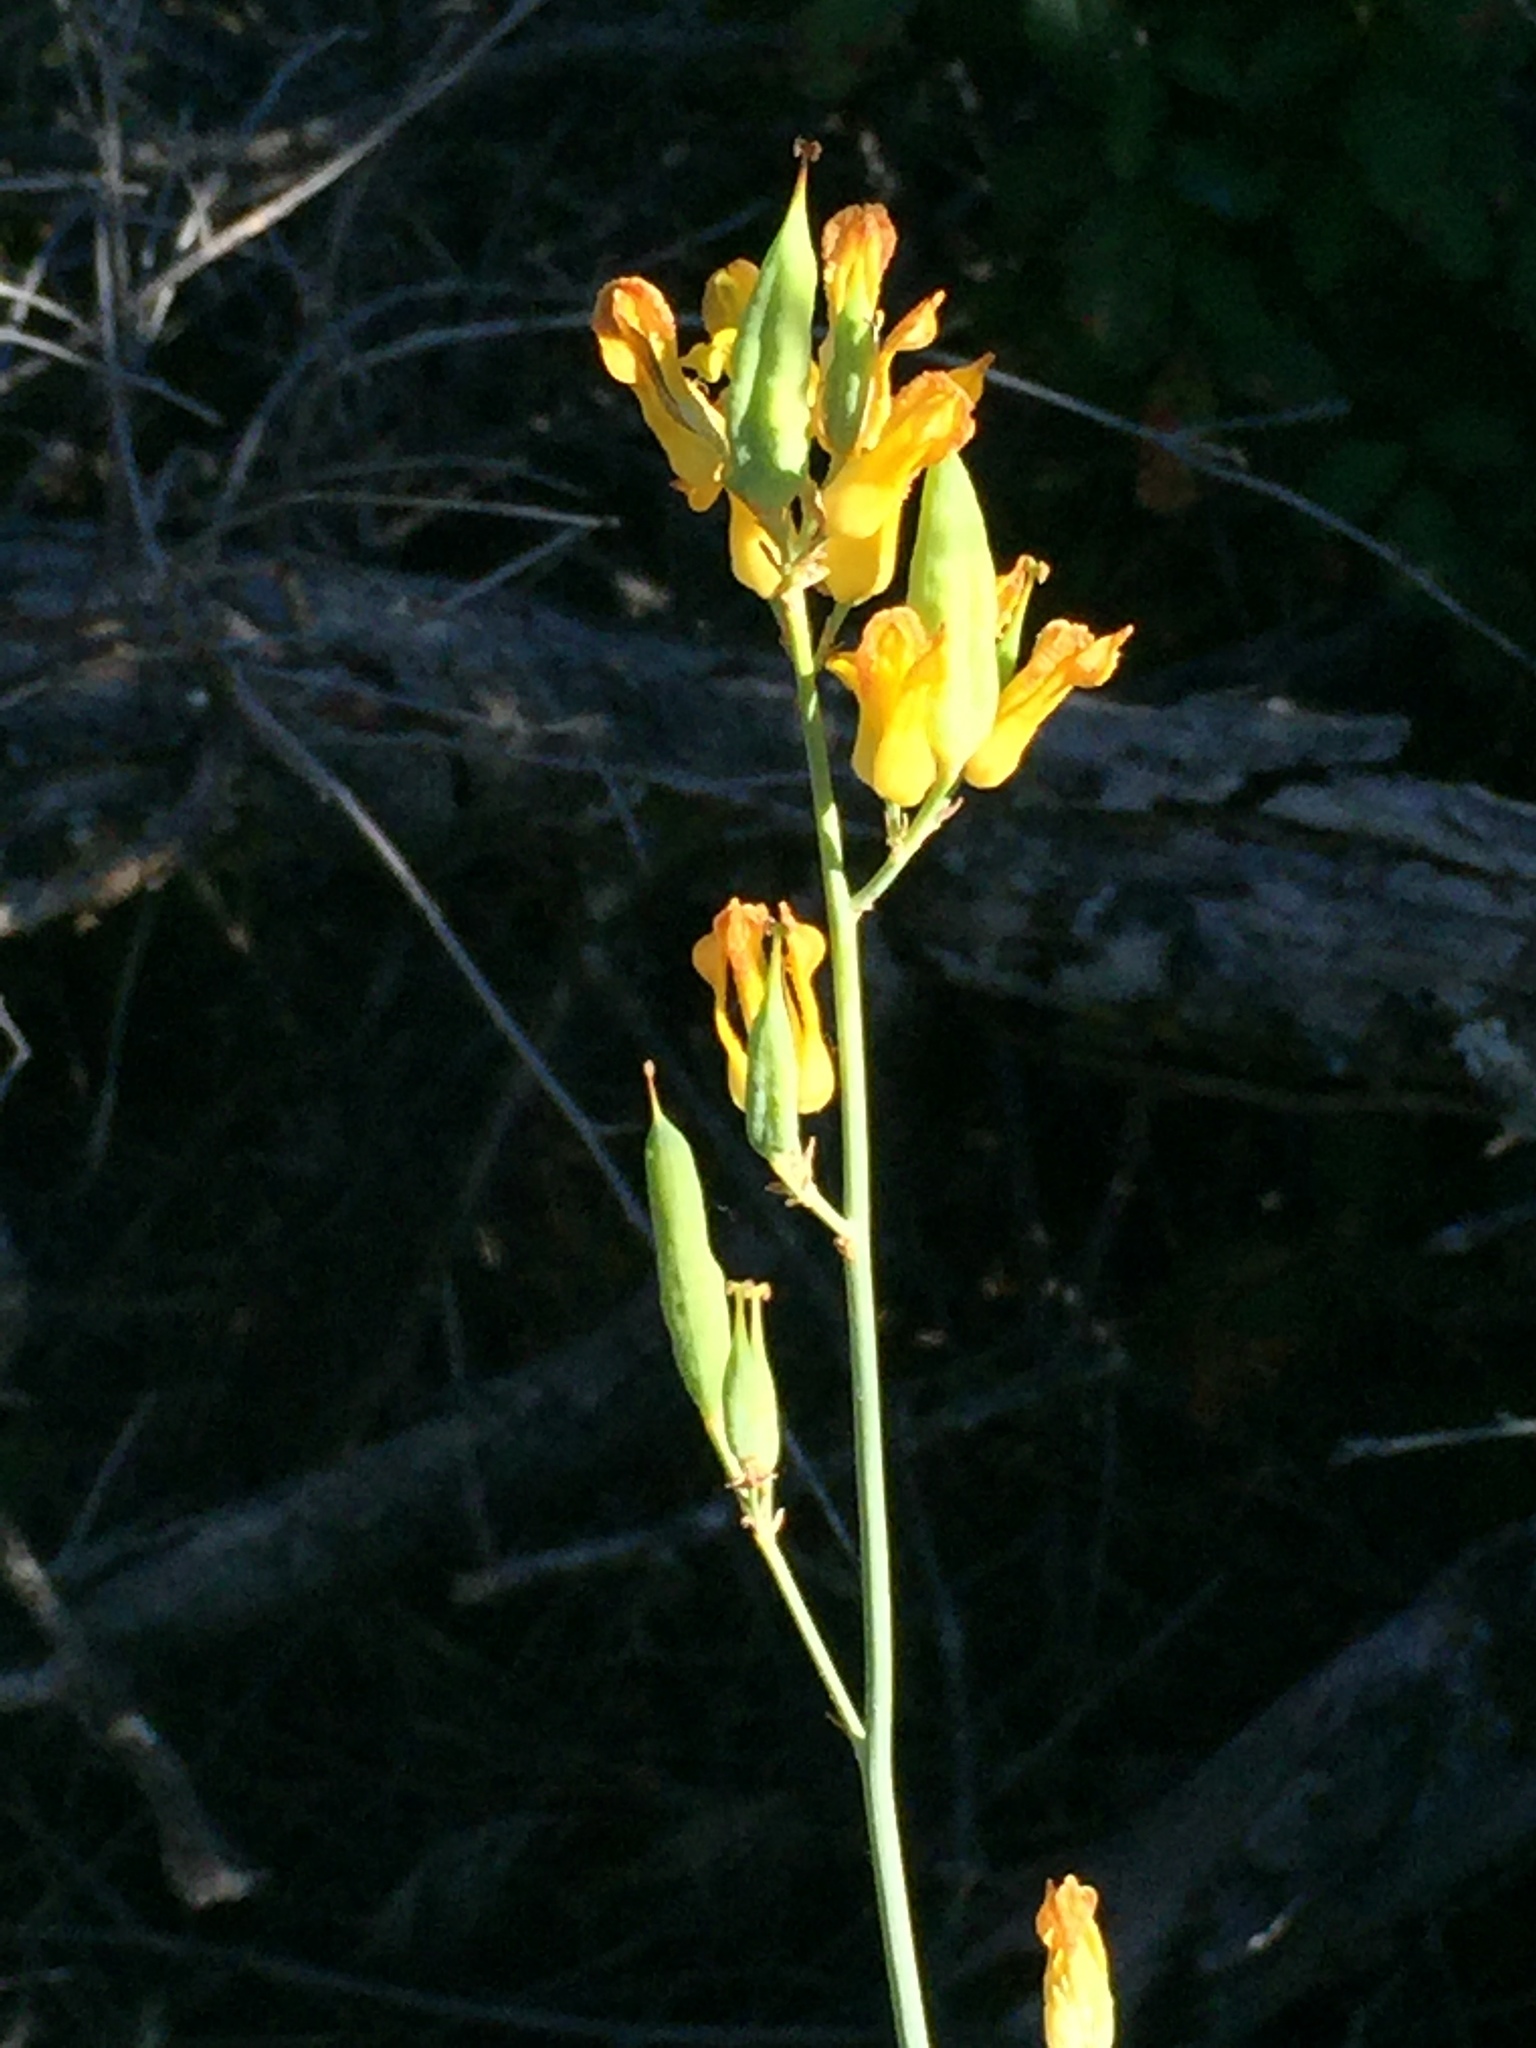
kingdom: Plantae
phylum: Tracheophyta
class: Magnoliopsida
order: Ranunculales
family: Papaveraceae
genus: Ehrendorferia
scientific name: Ehrendorferia chrysantha
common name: Golden eardrops
